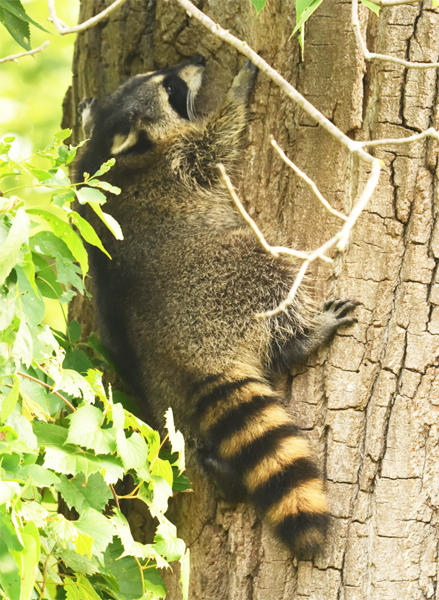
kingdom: Animalia
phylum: Chordata
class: Mammalia
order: Carnivora
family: Procyonidae
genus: Procyon
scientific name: Procyon lotor
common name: Raccoon
